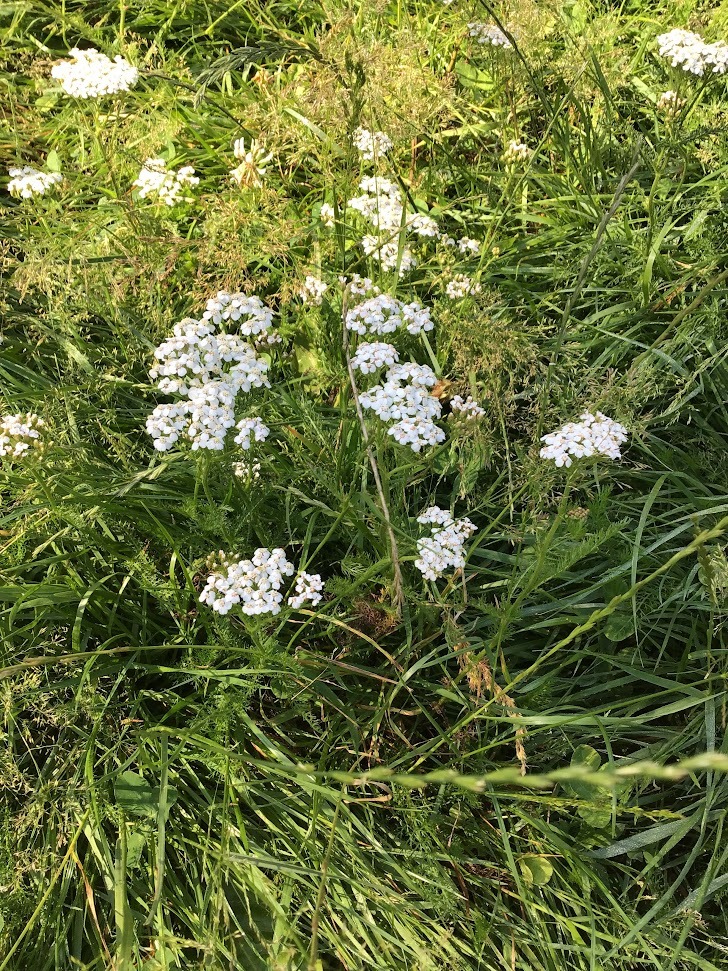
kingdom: Plantae
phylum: Tracheophyta
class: Magnoliopsida
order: Asterales
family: Asteraceae
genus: Achillea
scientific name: Achillea millefolium
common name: Yarrow
